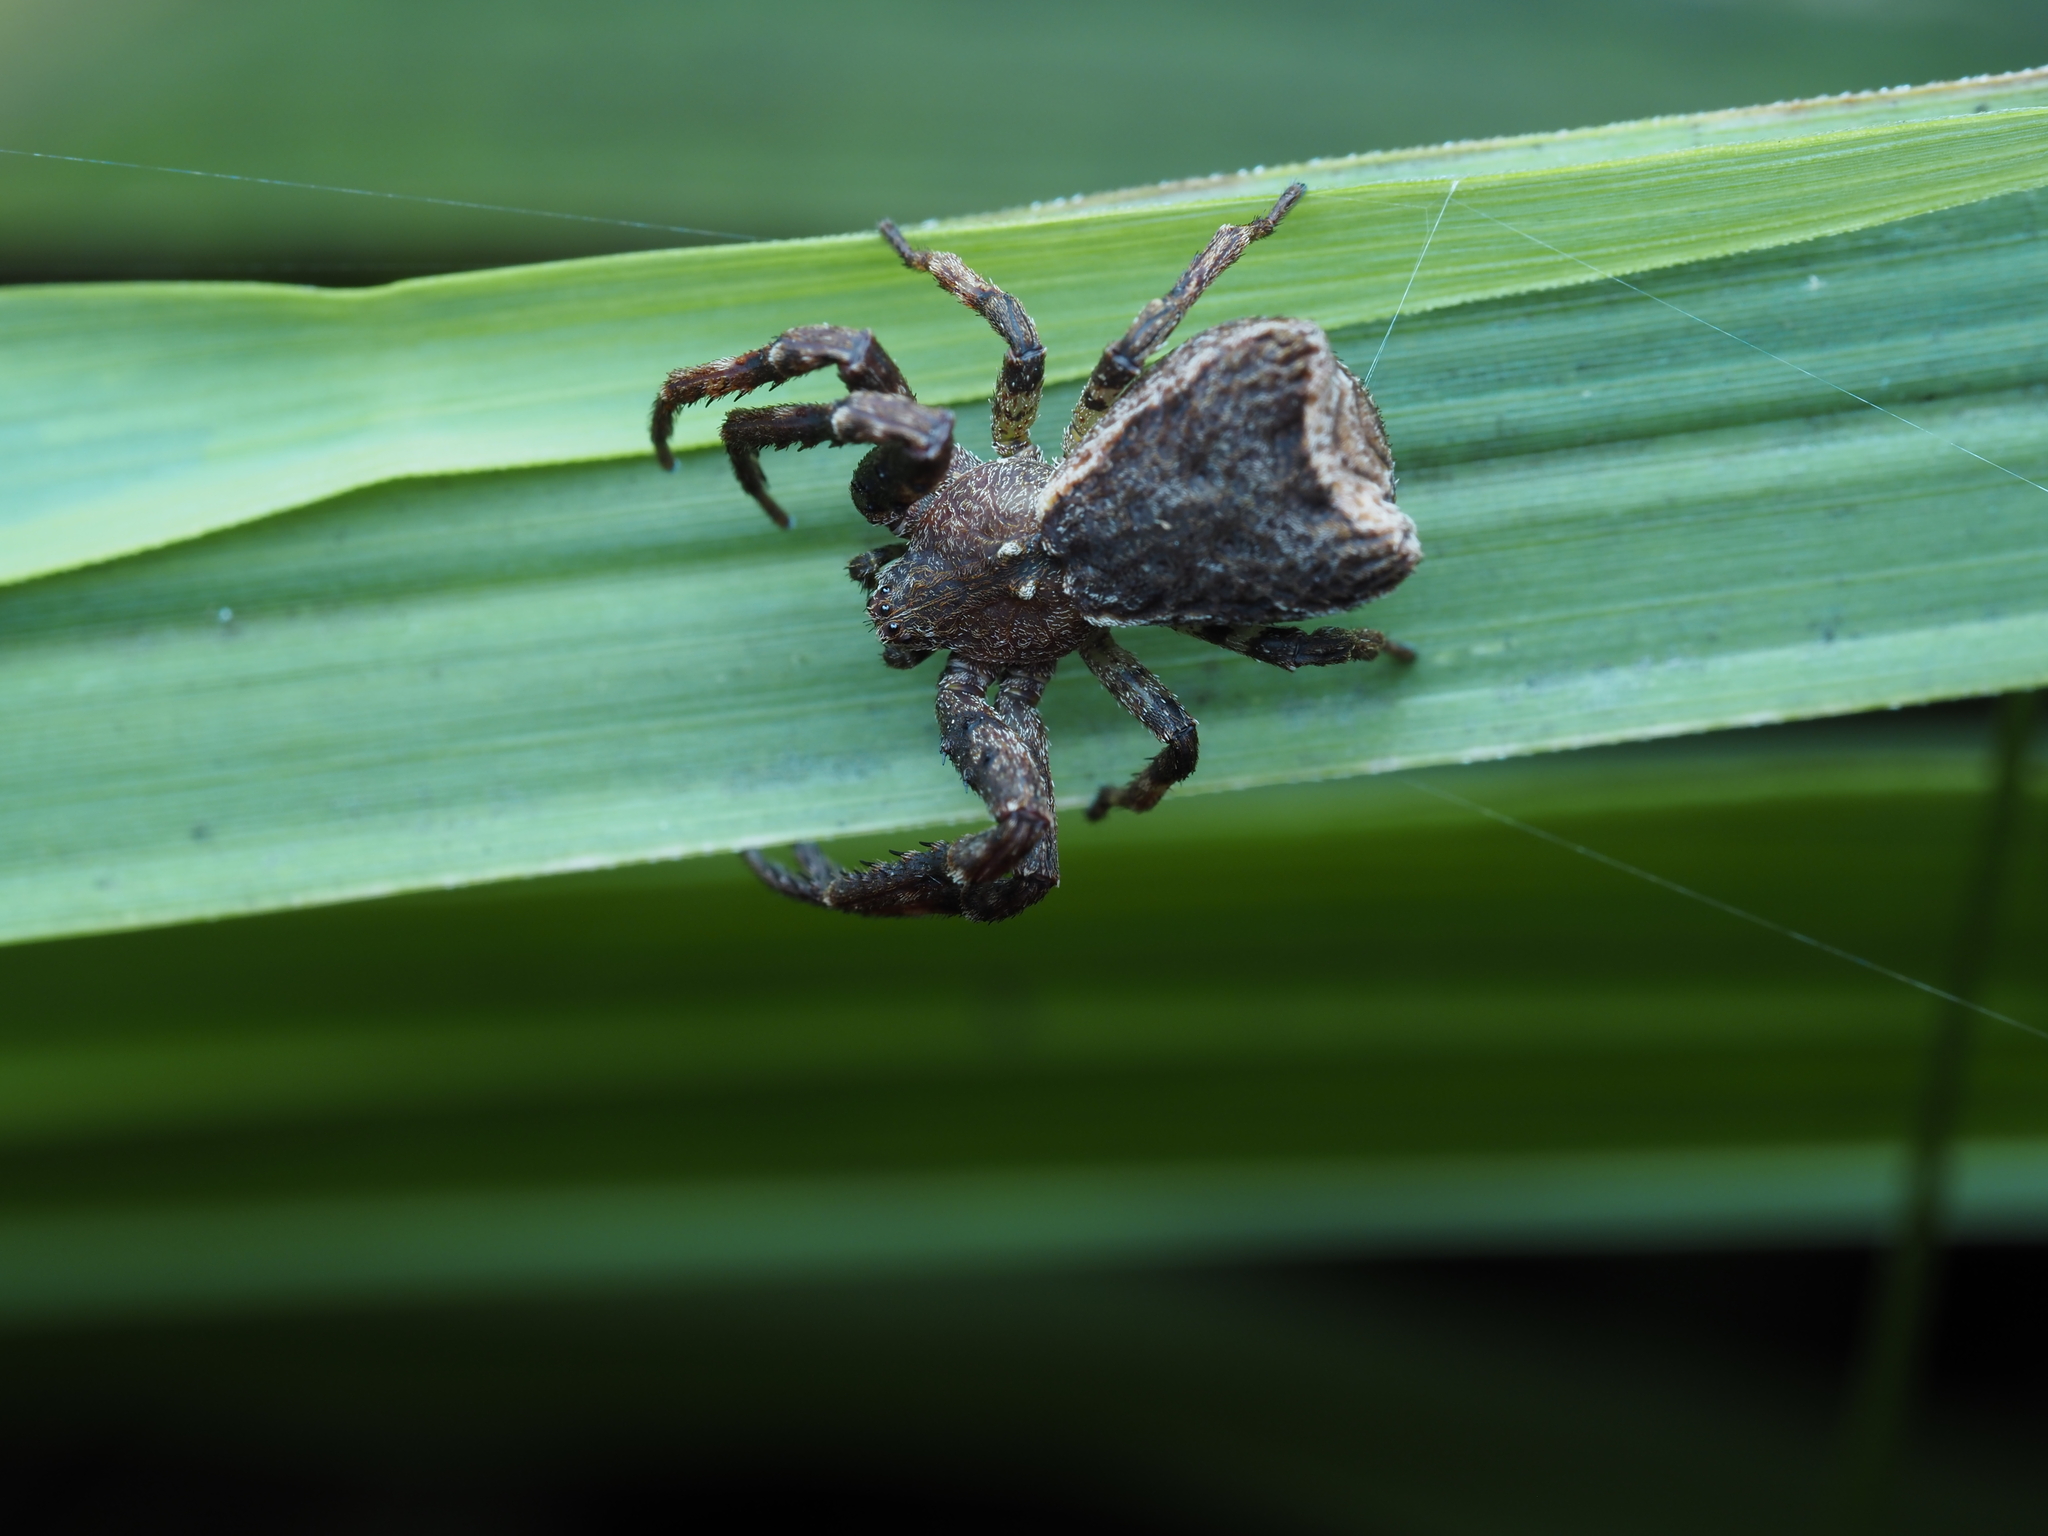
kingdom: Animalia
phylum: Arthropoda
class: Arachnida
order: Araneae
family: Thomisidae
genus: Sidymella
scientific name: Sidymella angularis
